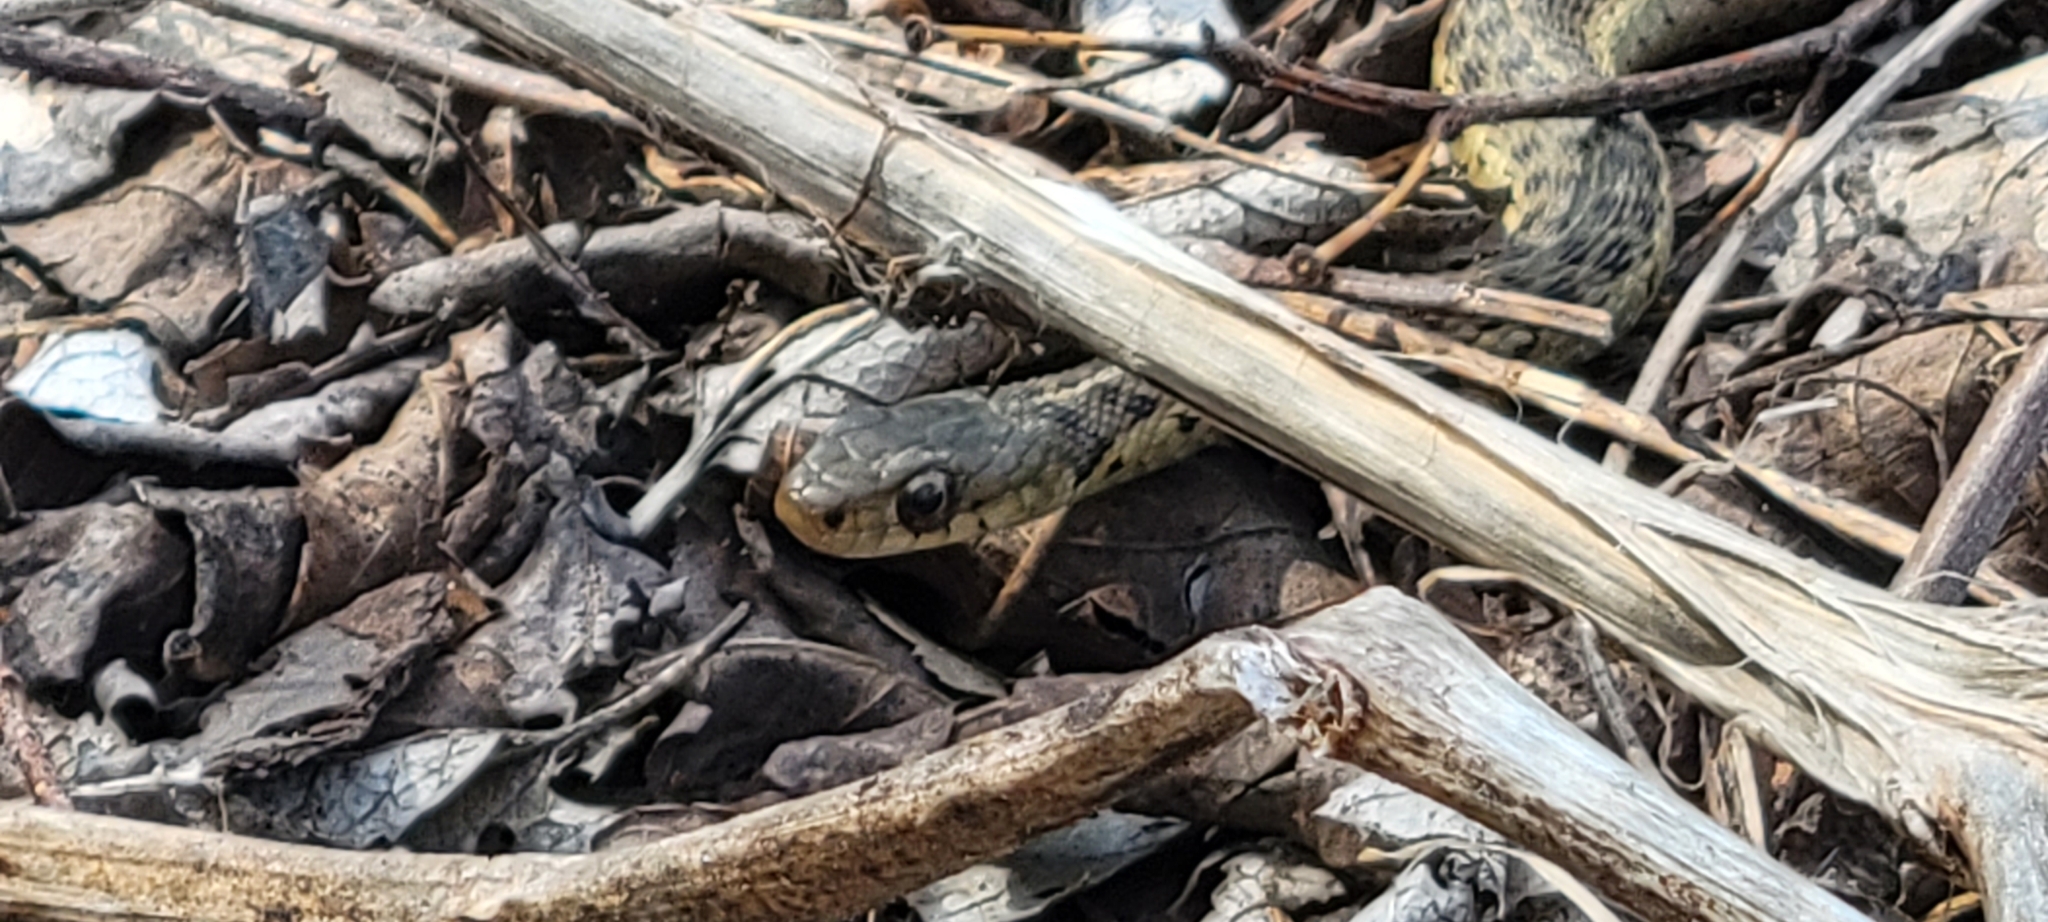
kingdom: Animalia
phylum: Chordata
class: Squamata
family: Colubridae
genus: Thamnophis
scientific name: Thamnophis sirtalis
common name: Common garter snake
